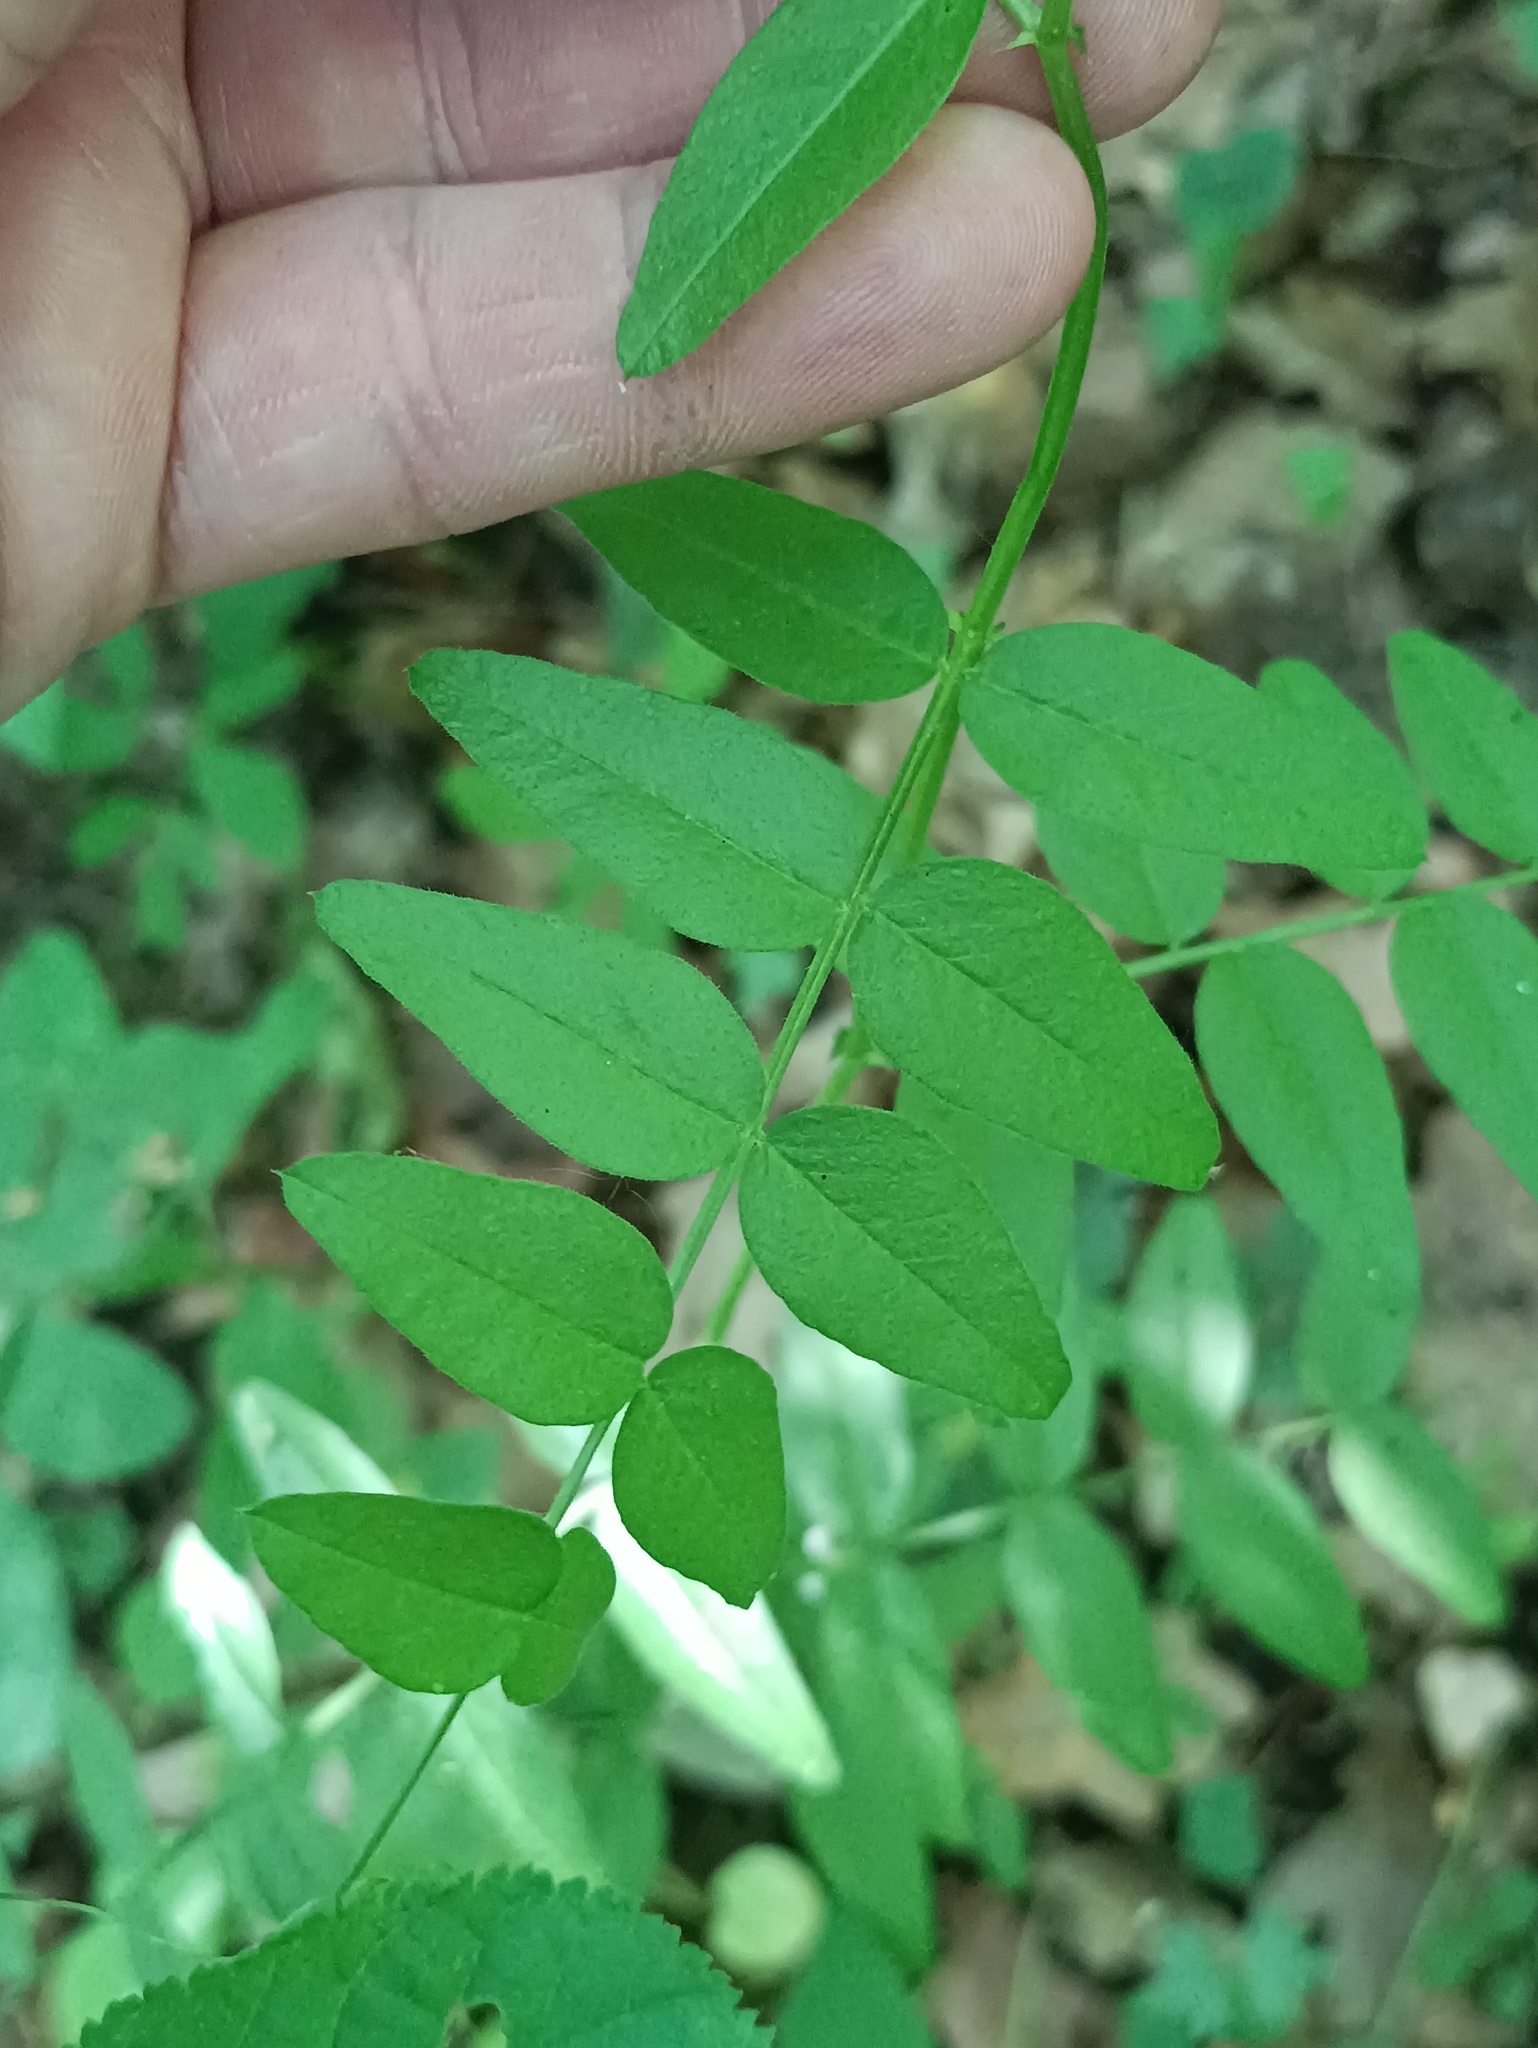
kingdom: Plantae
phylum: Tracheophyta
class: Magnoliopsida
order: Fabales
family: Fabaceae
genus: Vicia
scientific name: Vicia sepium
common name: Bush vetch
